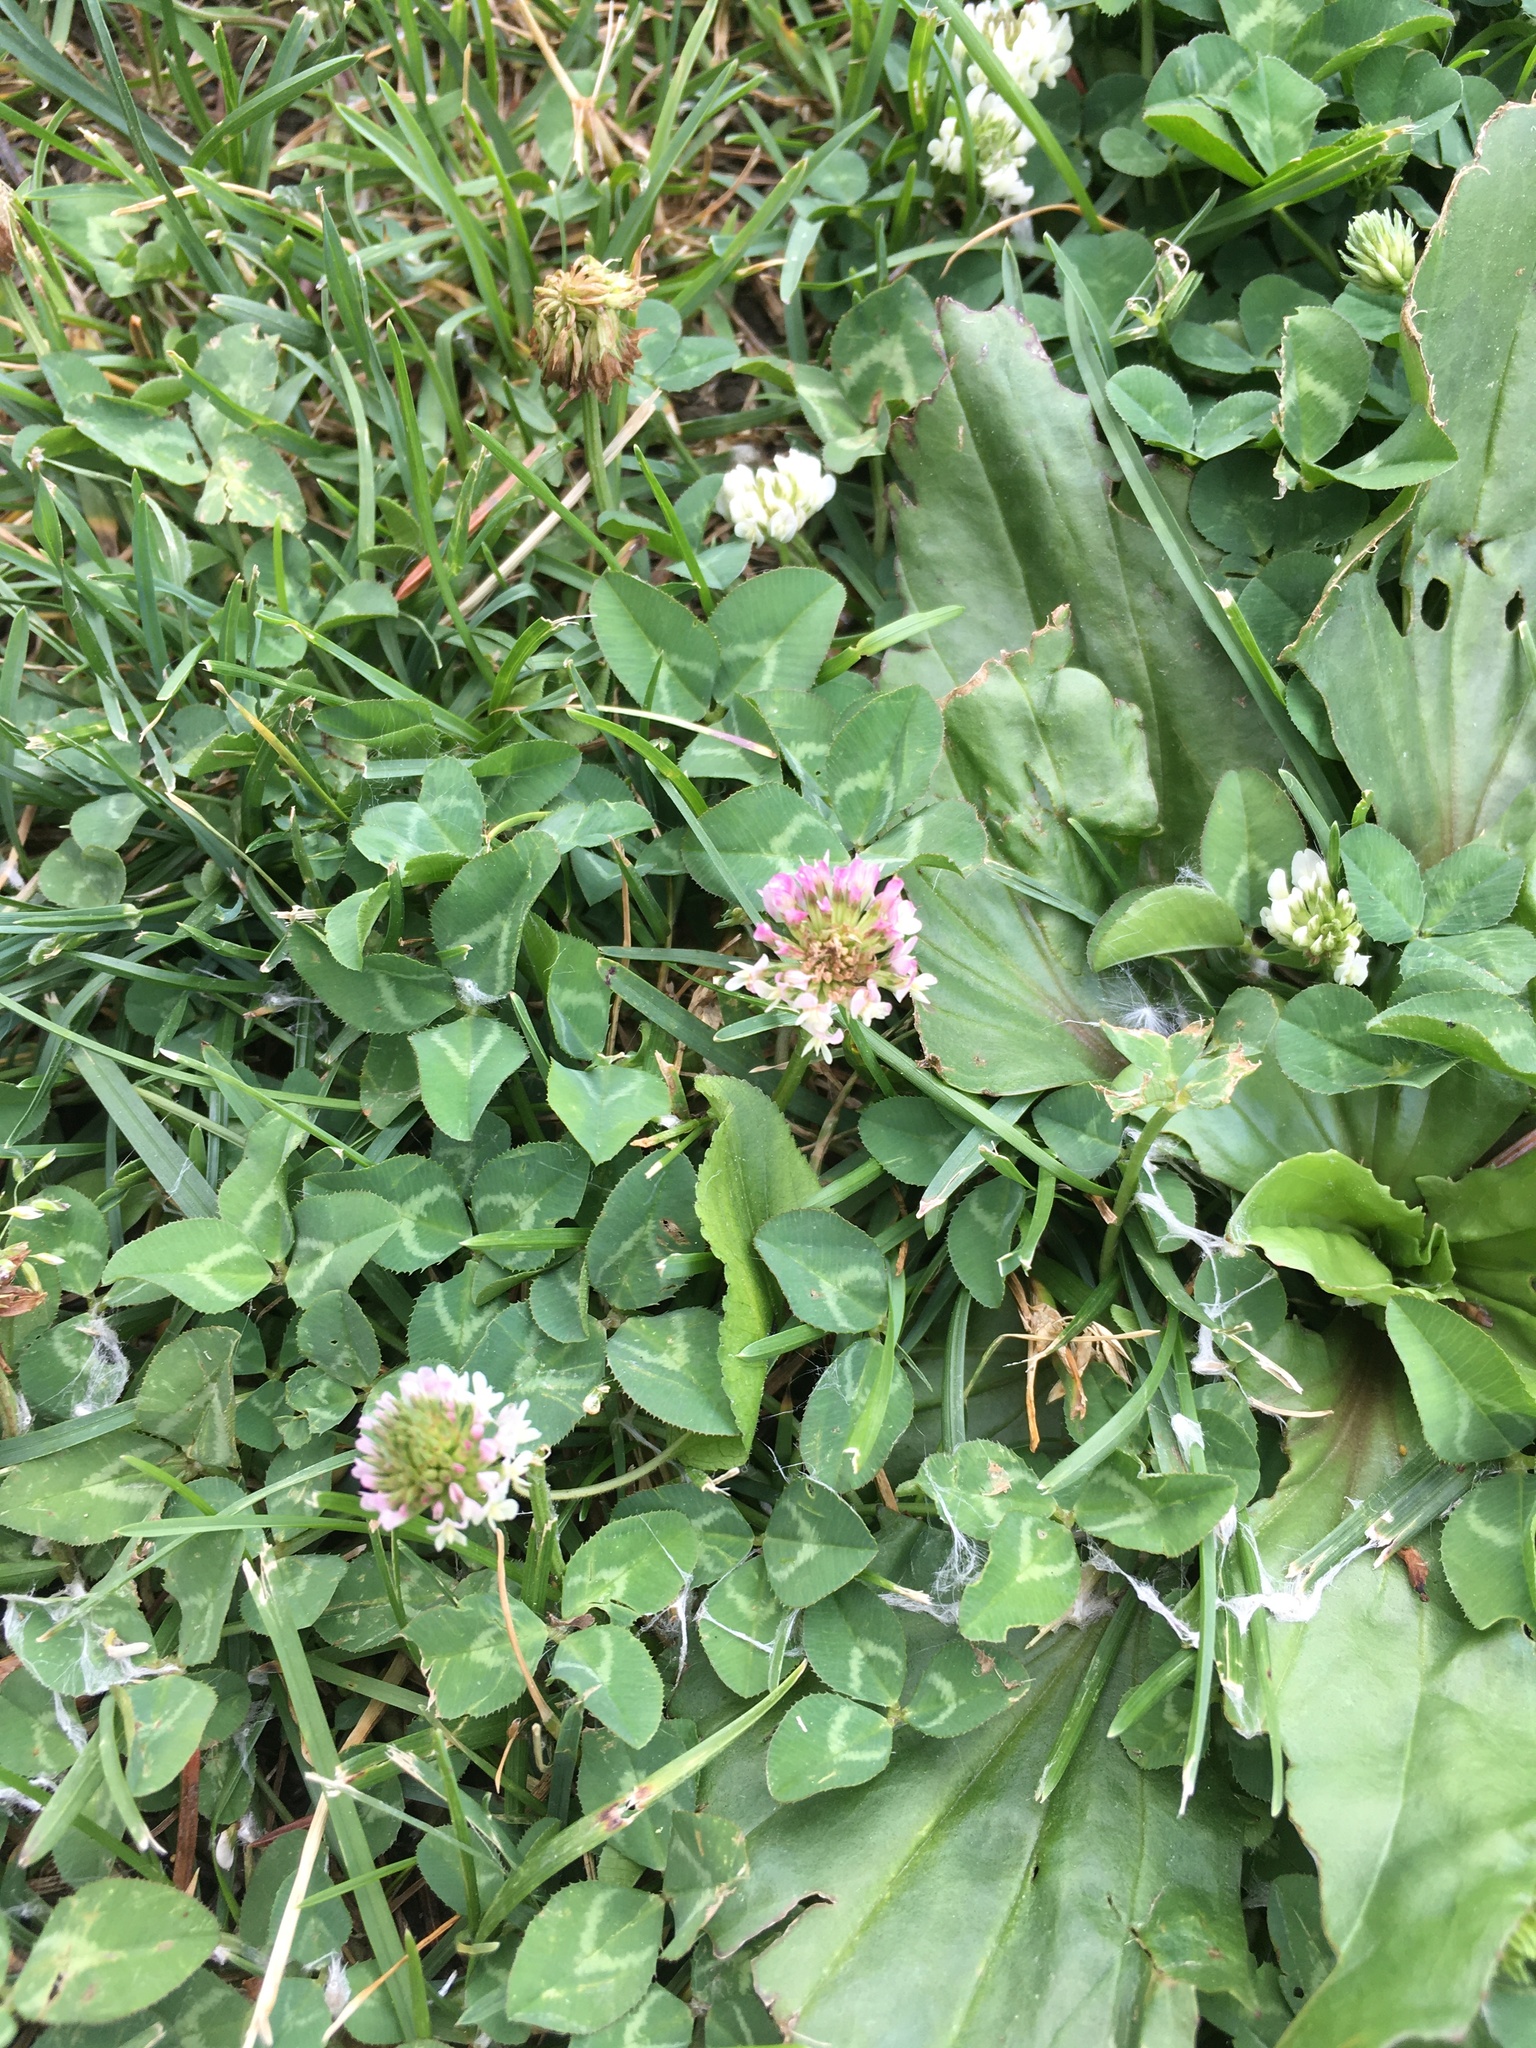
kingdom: Plantae
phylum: Tracheophyta
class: Magnoliopsida
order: Fabales
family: Fabaceae
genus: Trifolium
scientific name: Trifolium repens
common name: White clover
